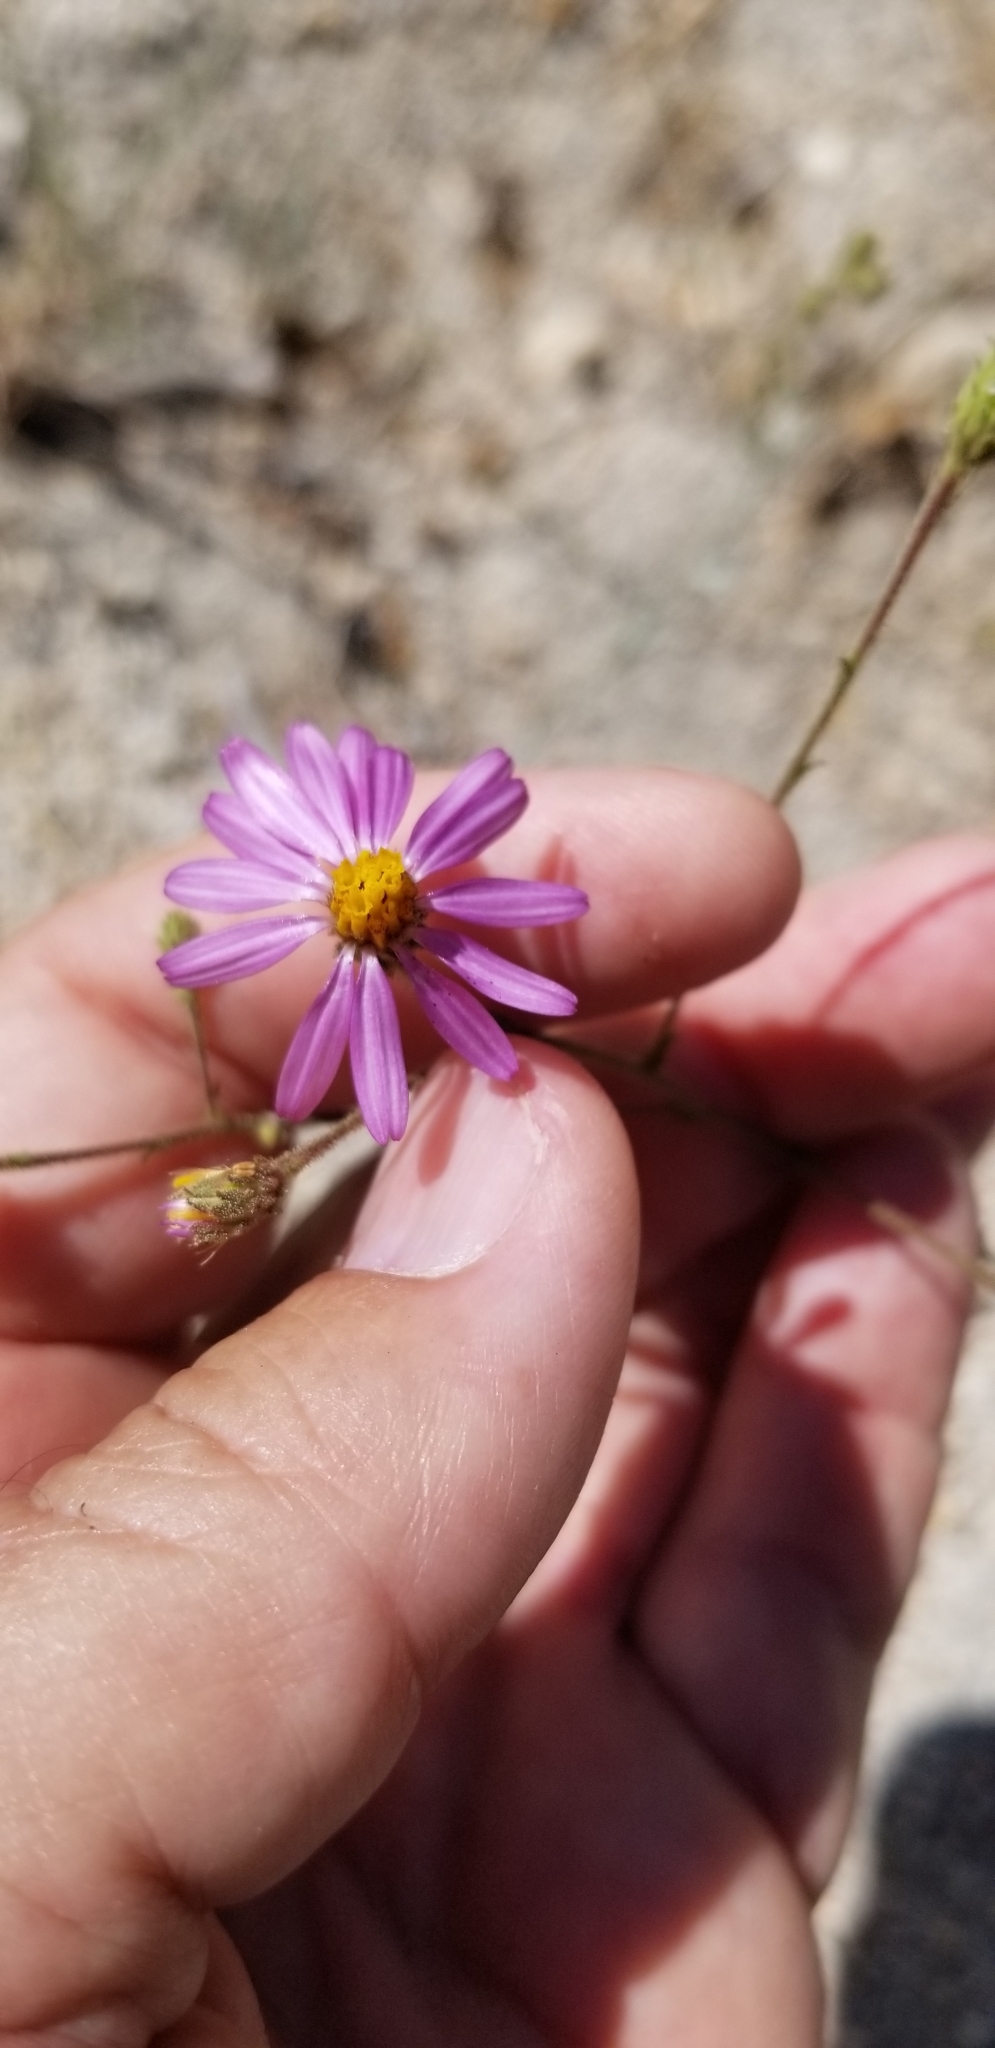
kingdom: Plantae
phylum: Tracheophyta
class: Magnoliopsida
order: Asterales
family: Asteraceae
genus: Corethrogyne
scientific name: Corethrogyne filaginifolia
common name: Sand-aster
